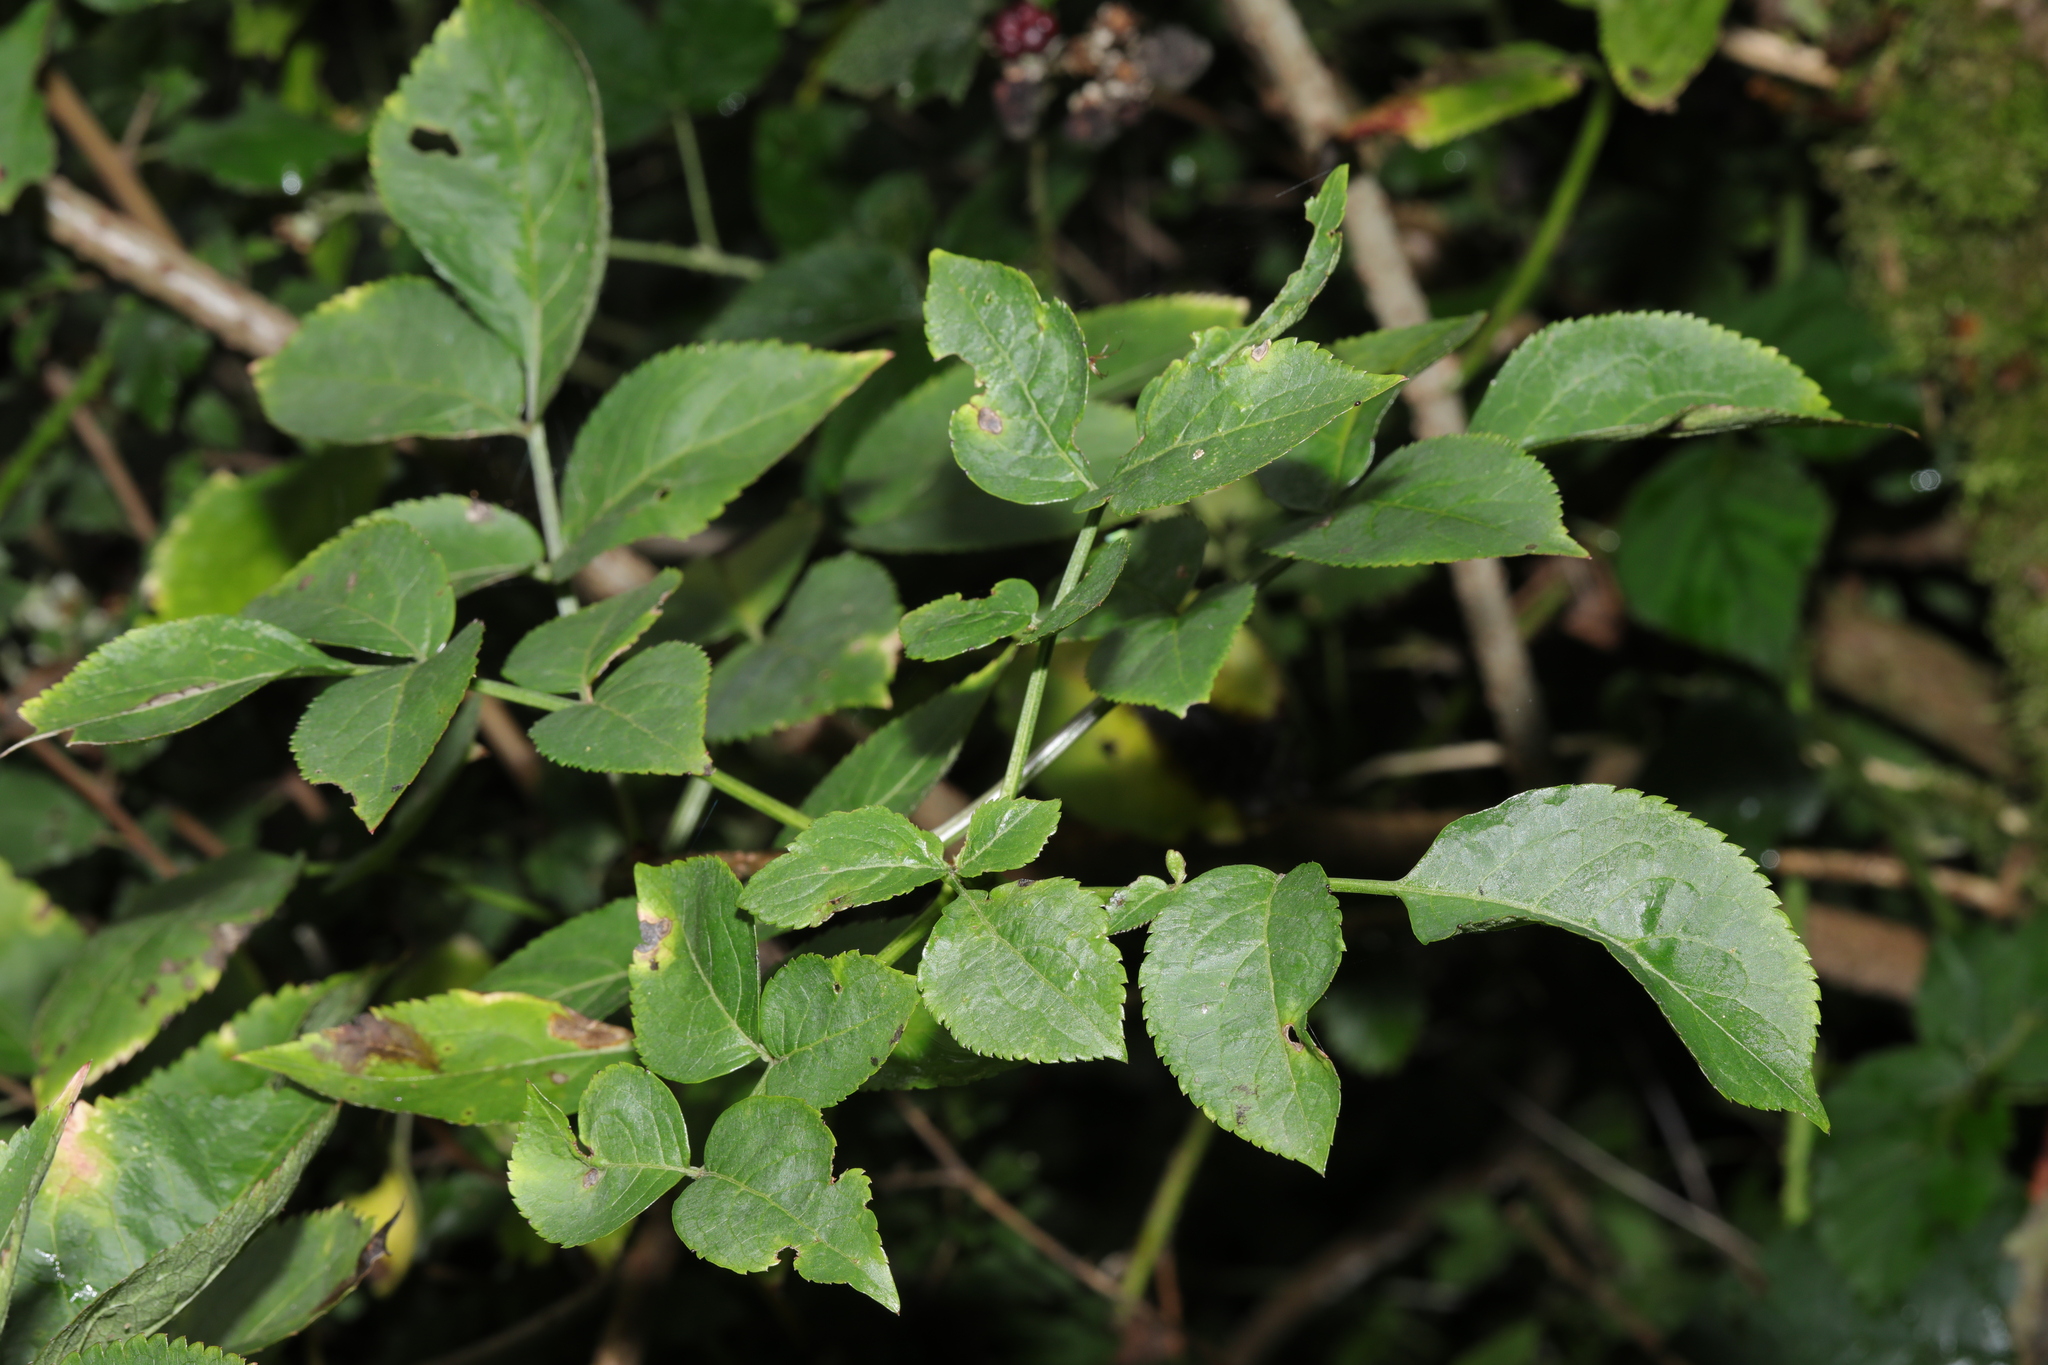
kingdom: Plantae
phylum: Tracheophyta
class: Magnoliopsida
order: Dipsacales
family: Viburnaceae
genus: Sambucus
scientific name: Sambucus nigra
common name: Elder
